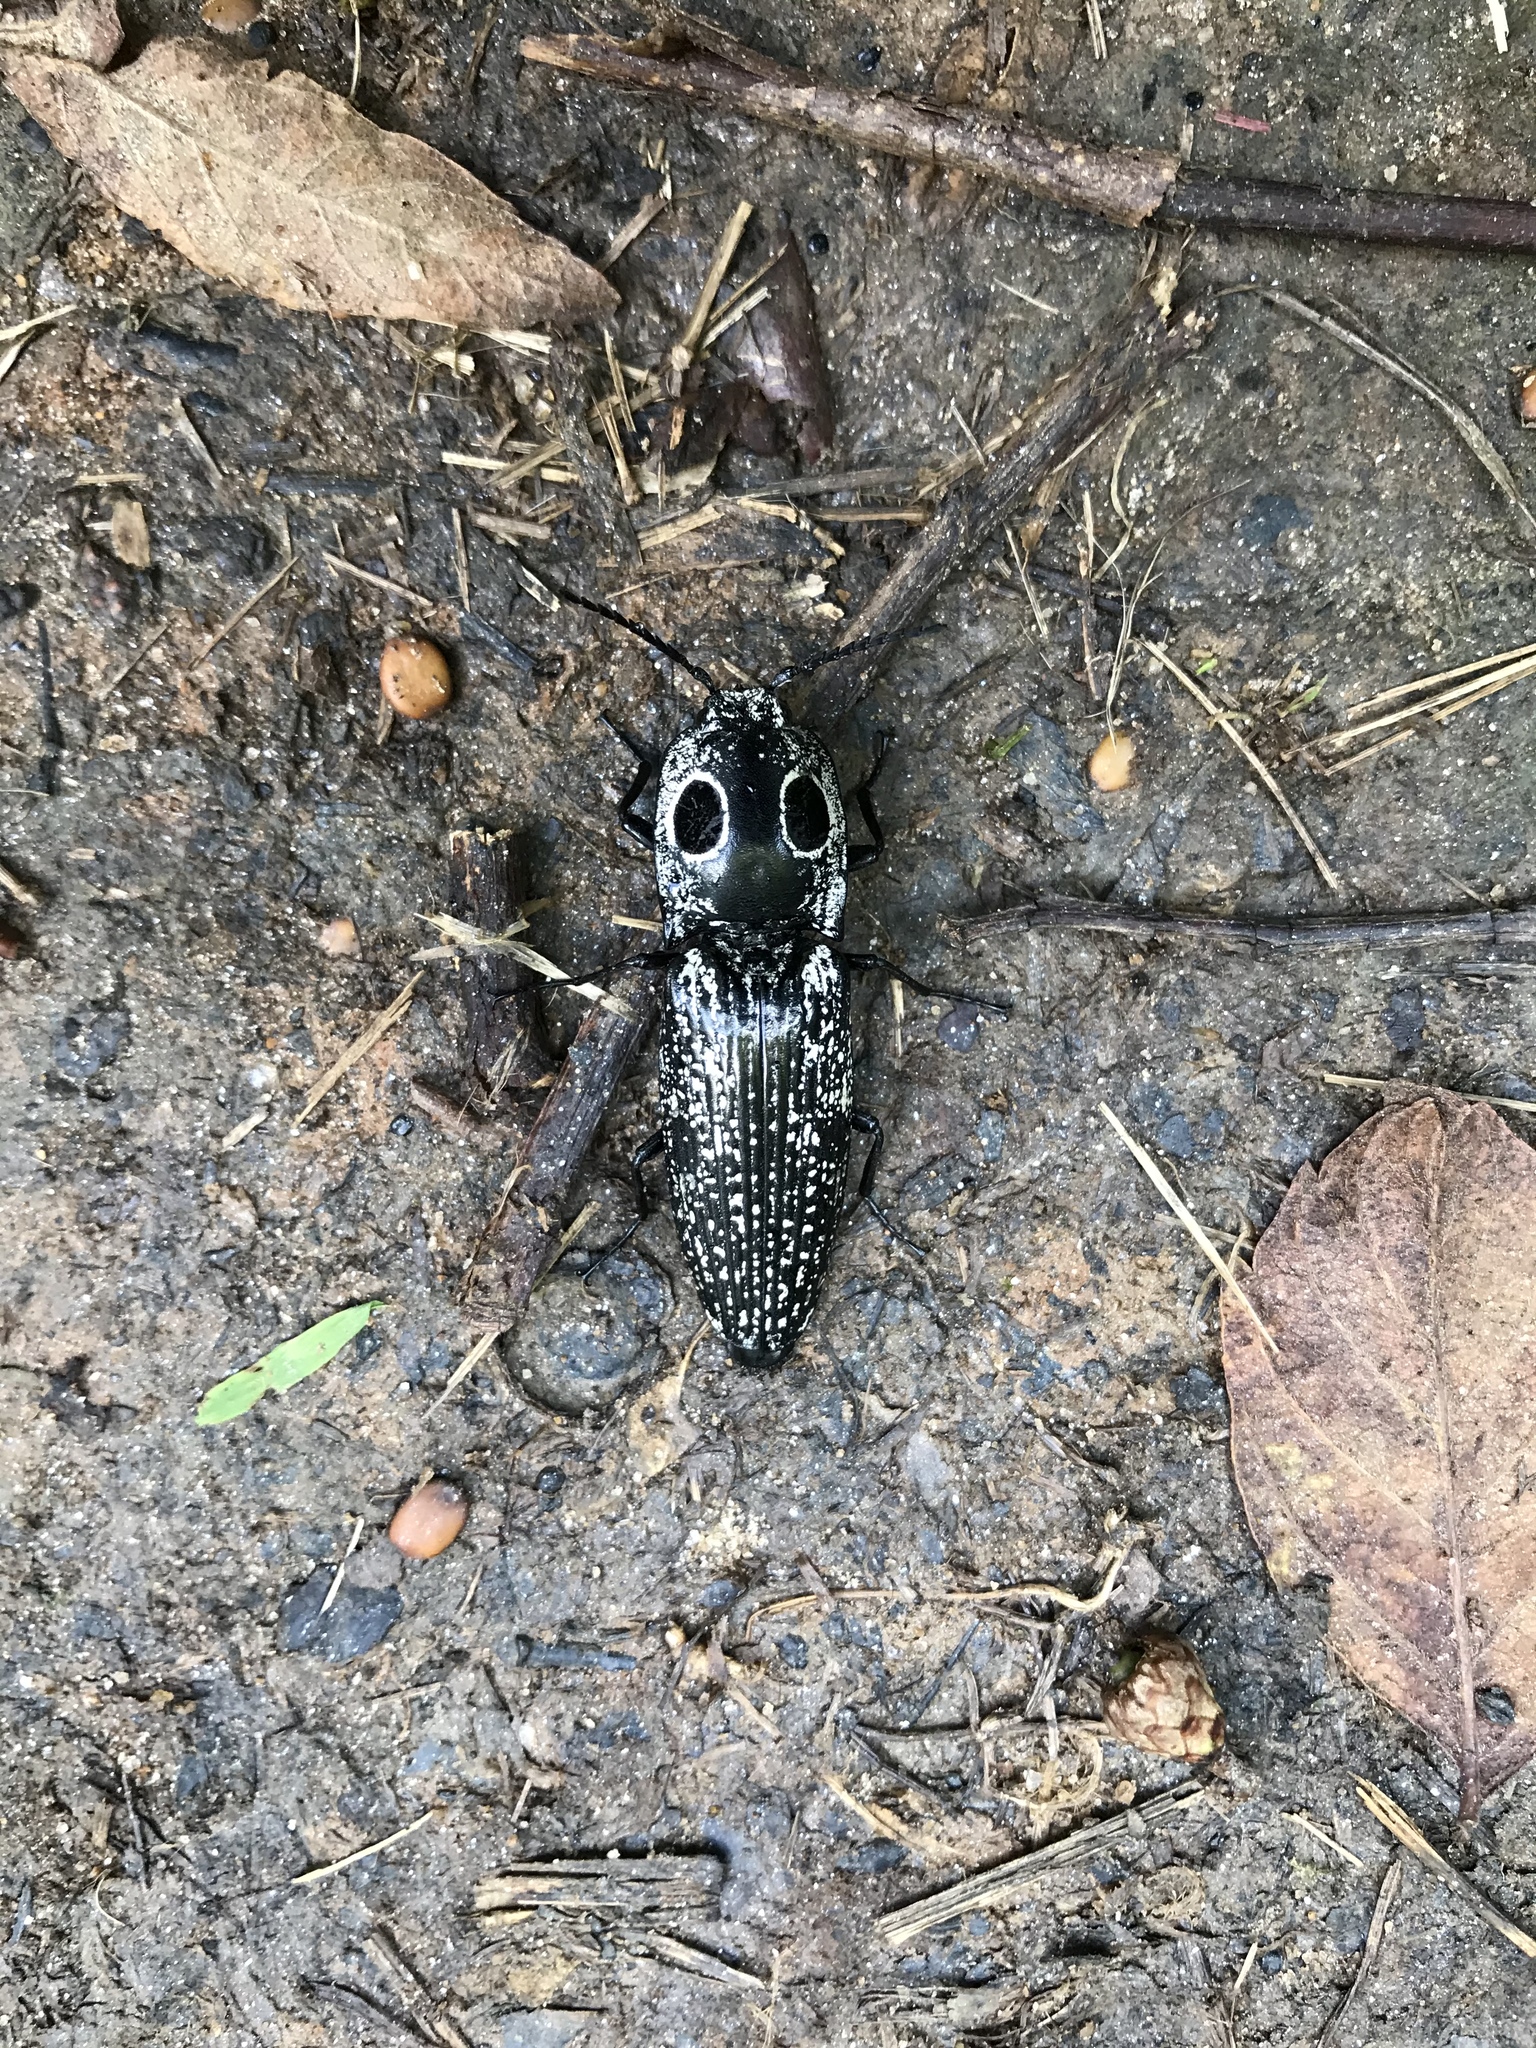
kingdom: Animalia
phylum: Arthropoda
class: Insecta
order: Coleoptera
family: Elateridae
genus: Alaus
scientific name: Alaus oculatus
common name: Eastern eyed click beetle
